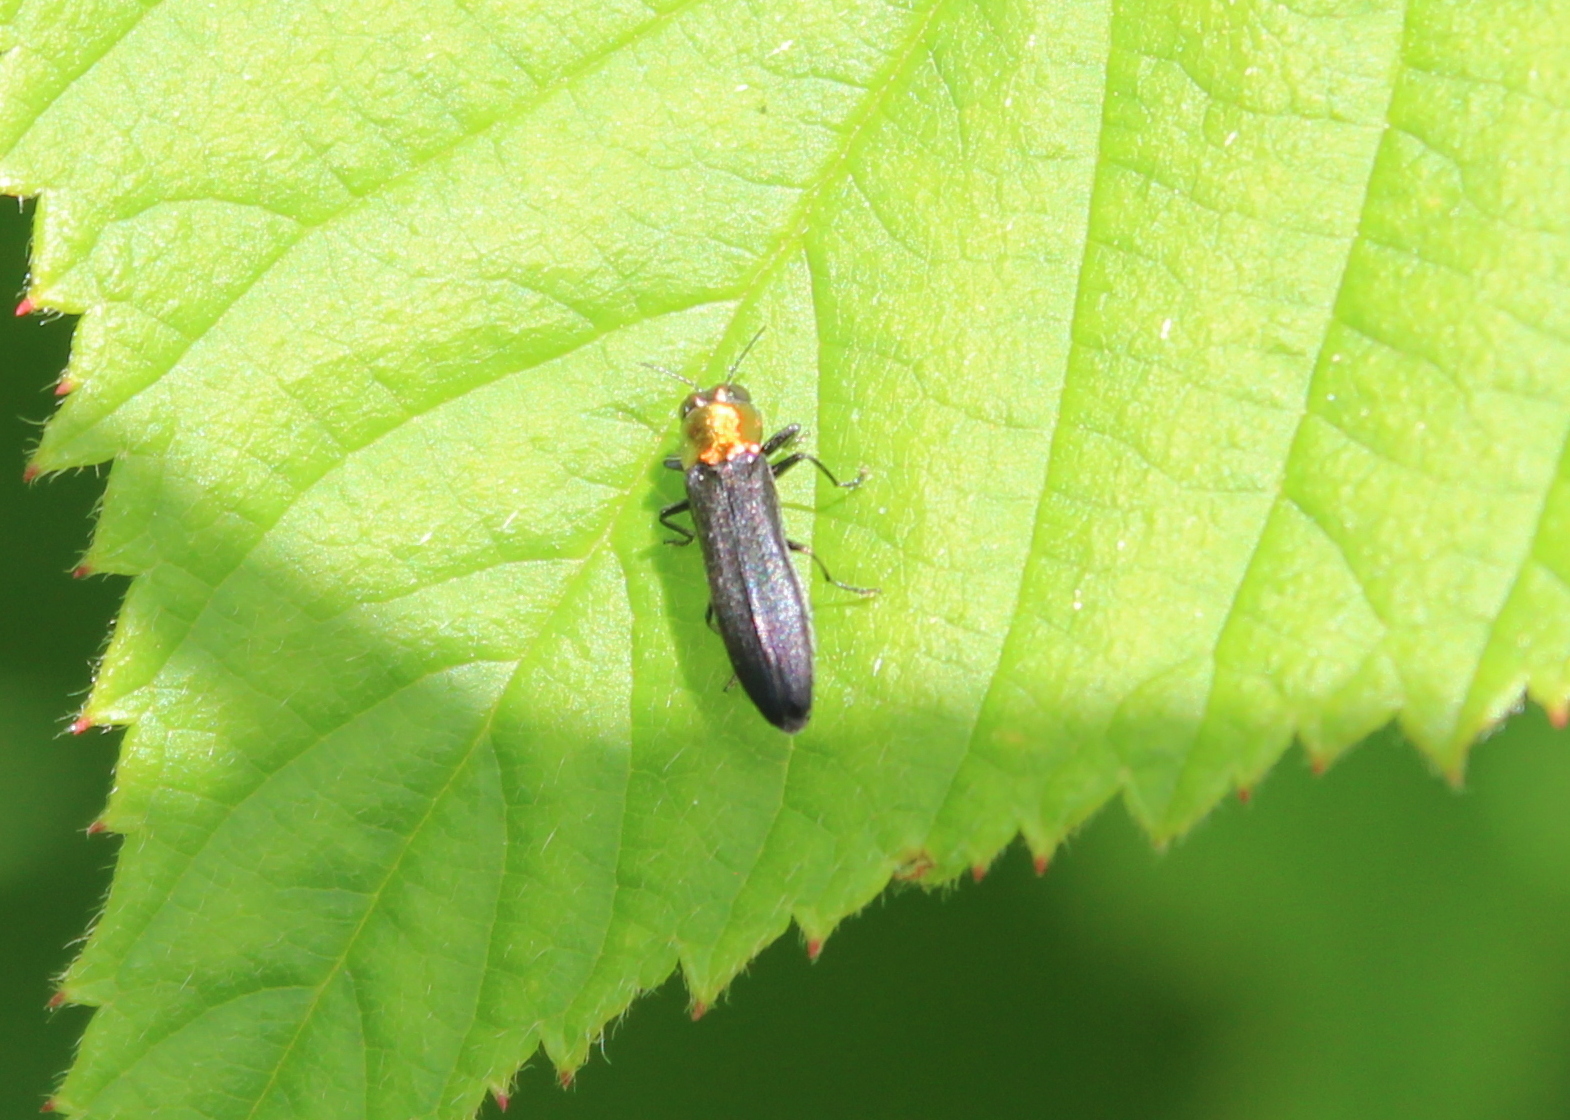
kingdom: Animalia
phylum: Arthropoda
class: Insecta
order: Coleoptera
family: Buprestidae
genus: Agrilus
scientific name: Agrilus ruficollis
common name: Red-necked cane borer beetle
